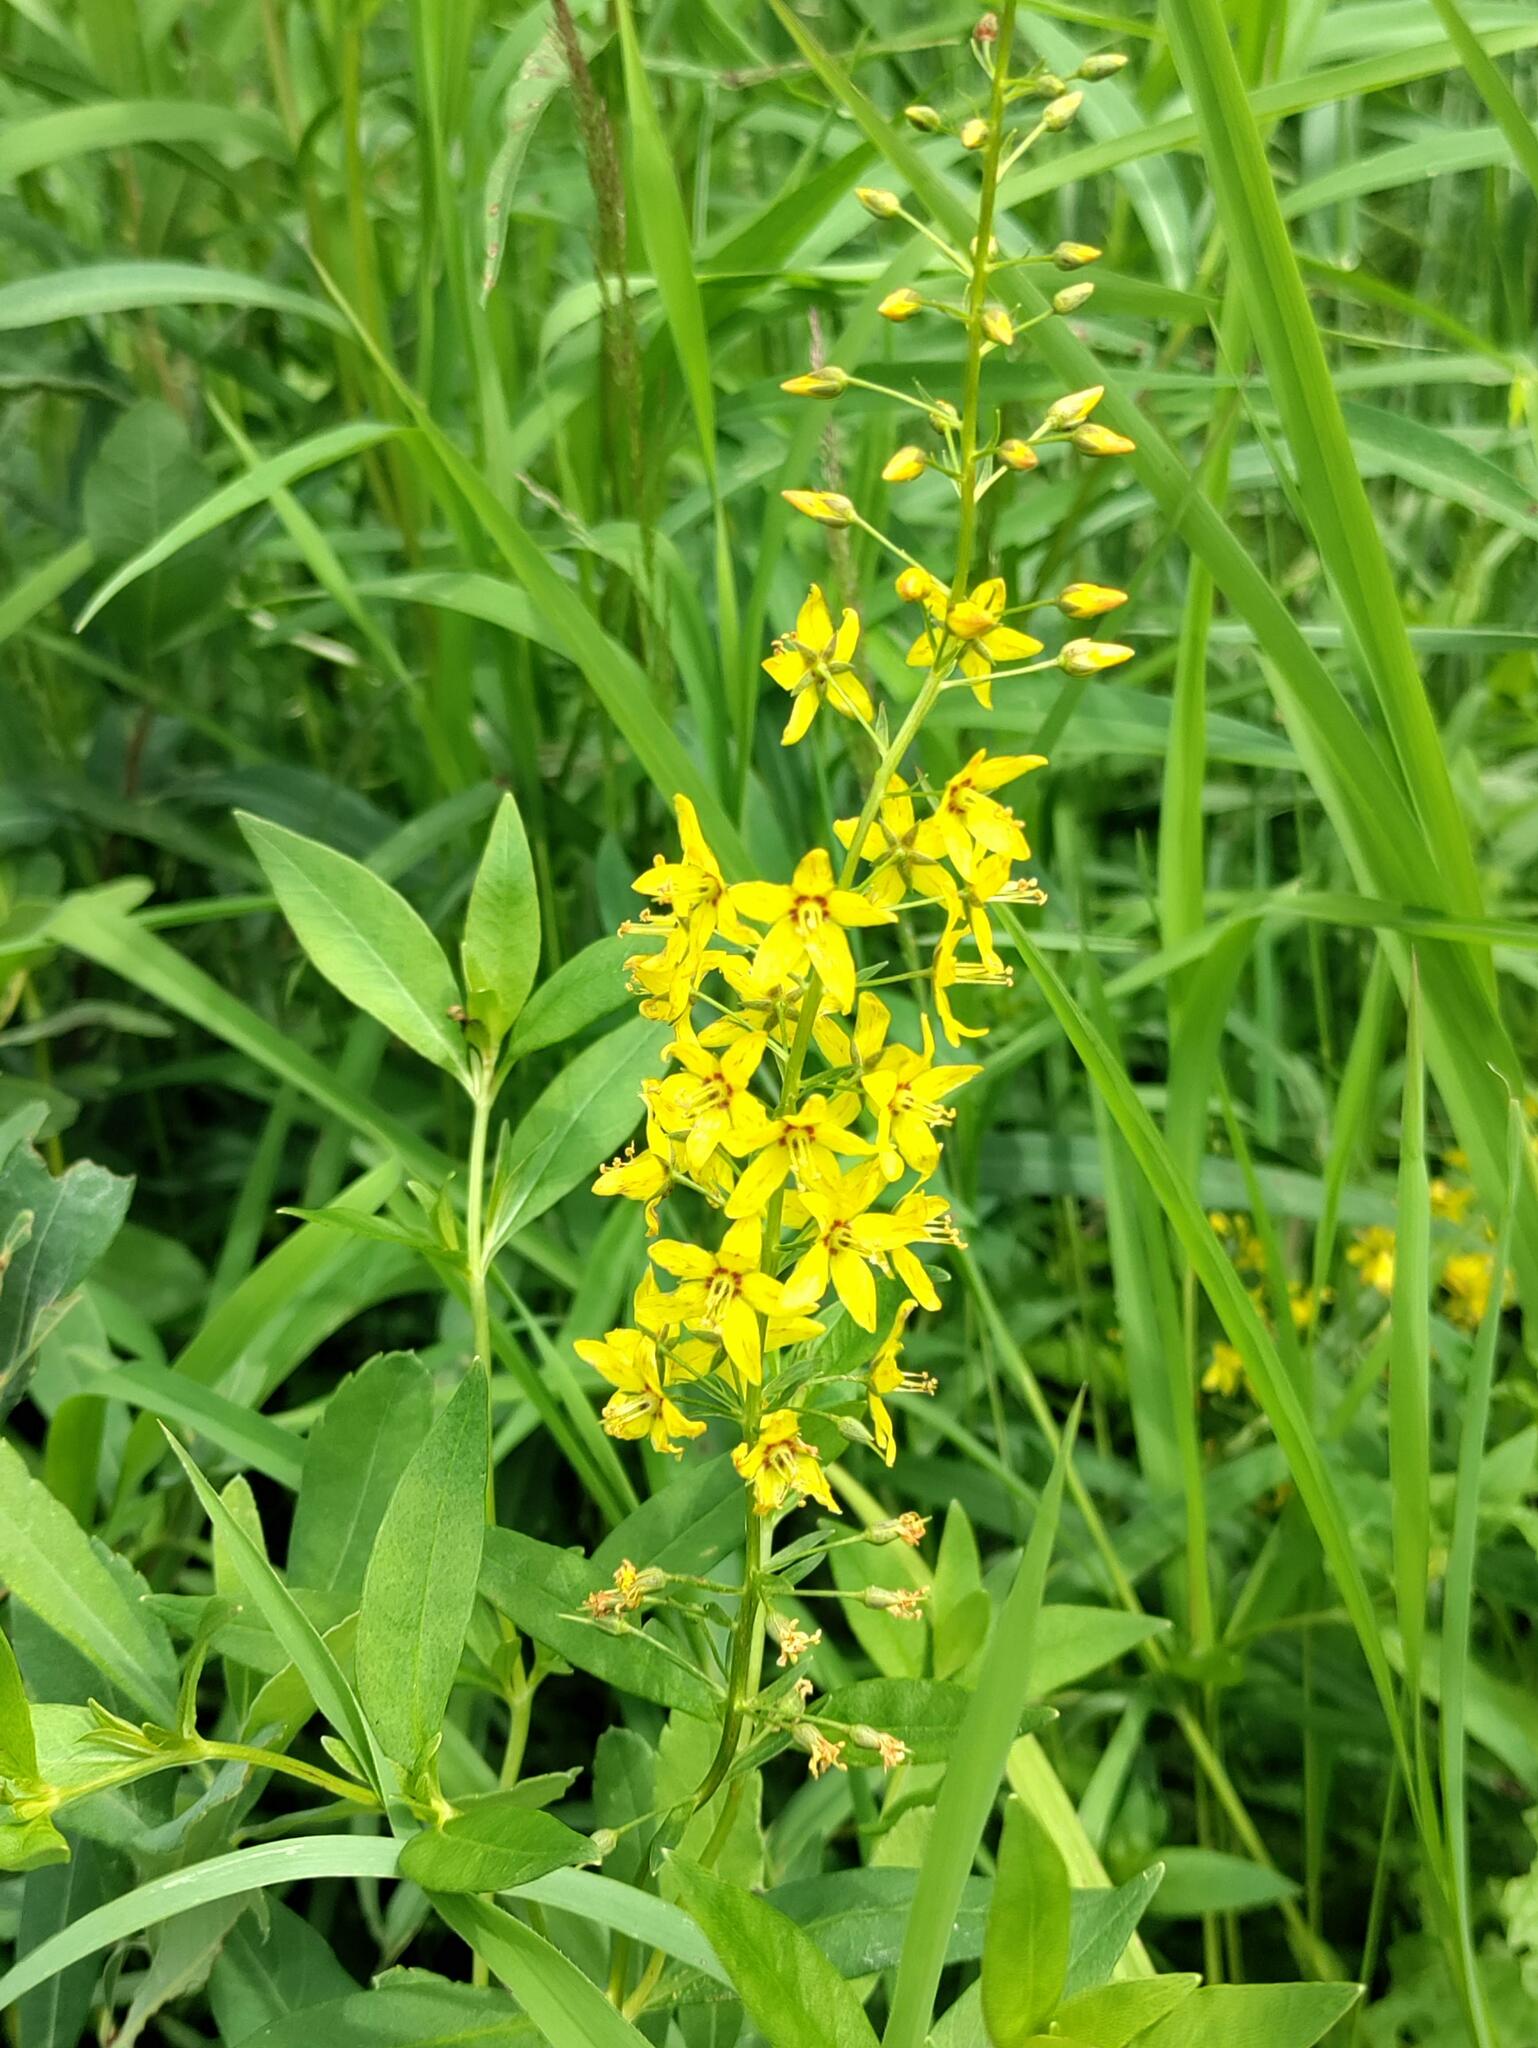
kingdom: Plantae
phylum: Tracheophyta
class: Magnoliopsida
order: Ericales
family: Primulaceae
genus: Lysimachia
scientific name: Lysimachia terrestris
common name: Lake loosestrife
